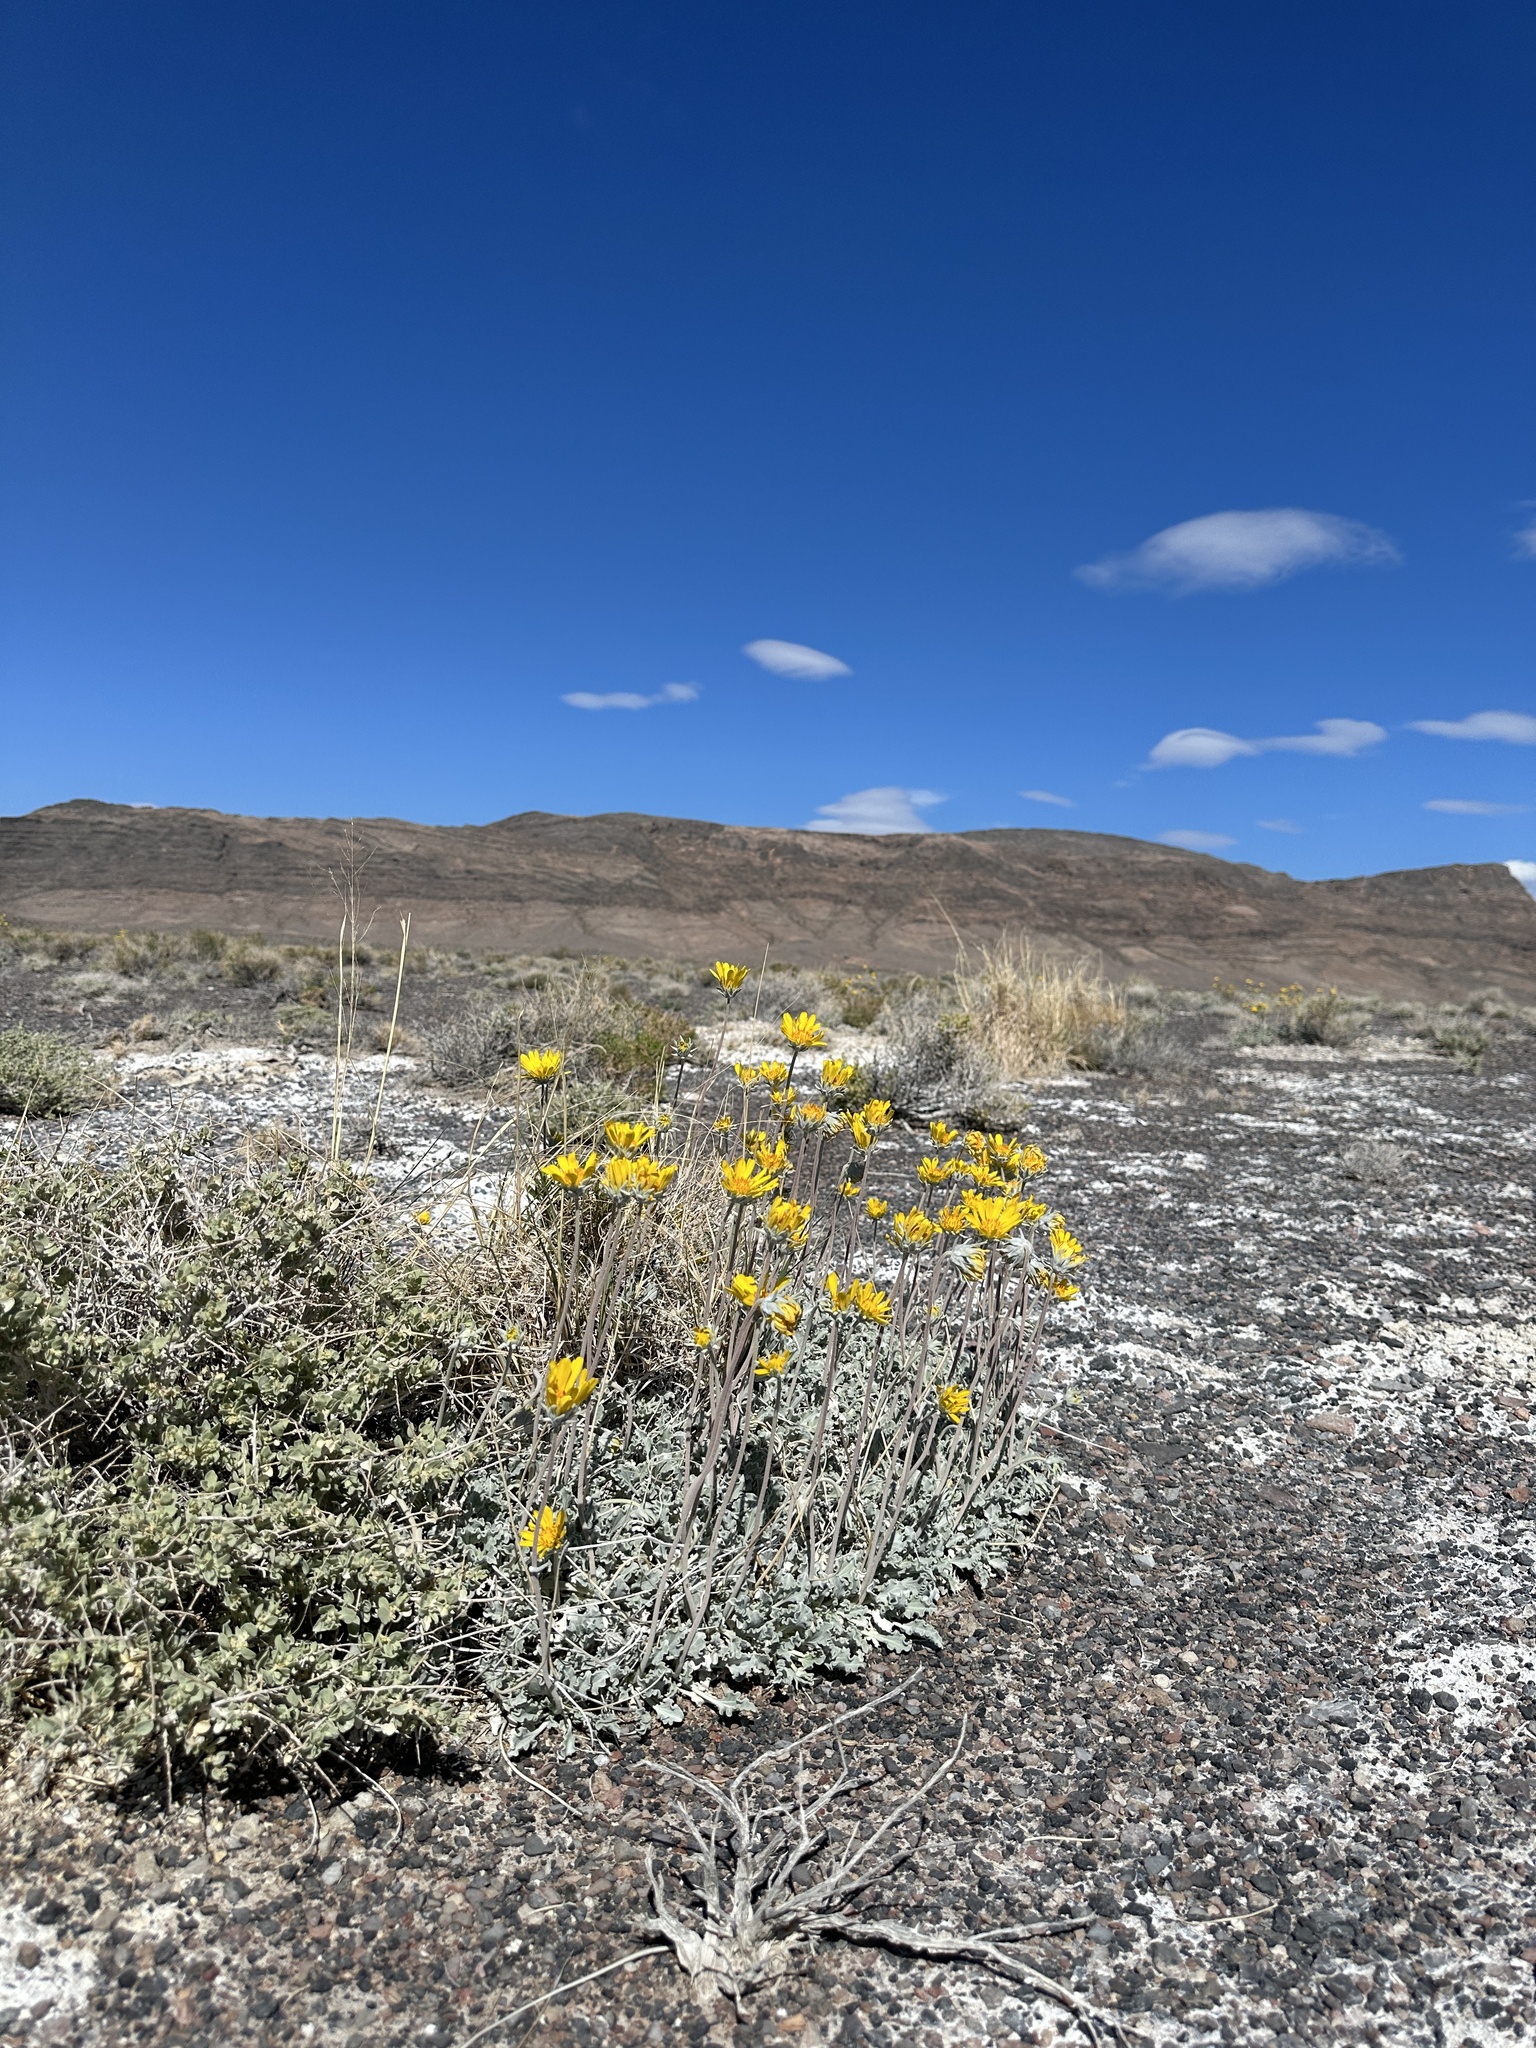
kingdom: Plantae
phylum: Tracheophyta
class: Magnoliopsida
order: Asterales
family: Asteraceae
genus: Enceliopsis
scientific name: Enceliopsis nudicaulis
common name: Naked-stem daisy
